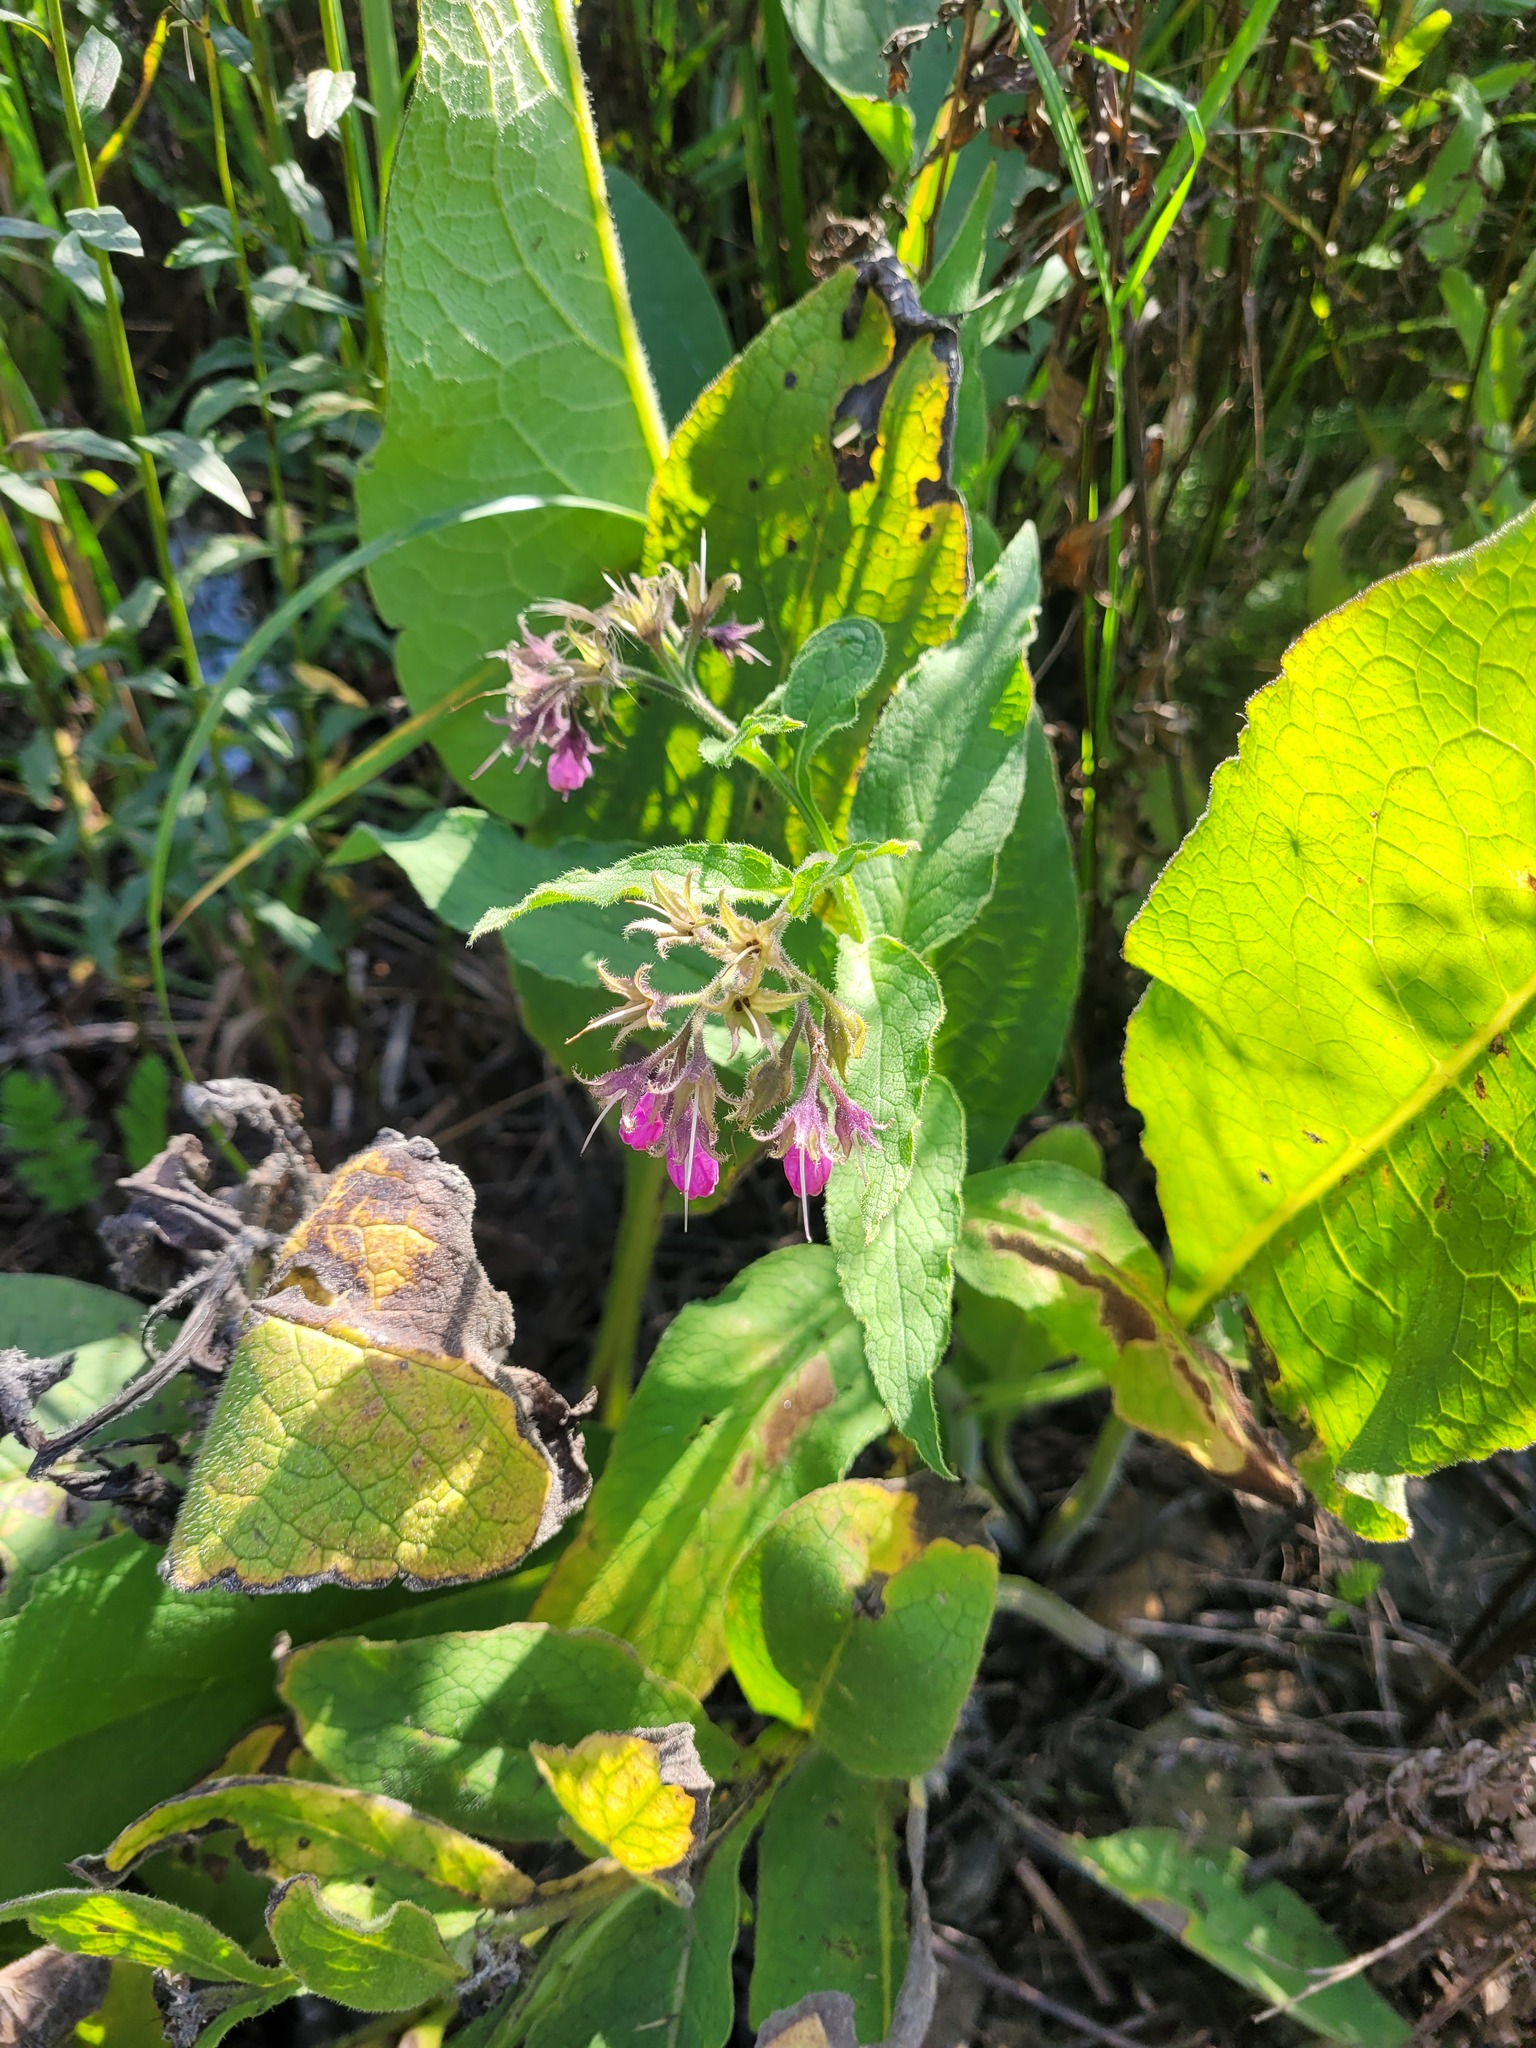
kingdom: Plantae
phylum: Tracheophyta
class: Magnoliopsida
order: Boraginales
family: Boraginaceae
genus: Symphytum
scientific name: Symphytum officinale
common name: Common comfrey
